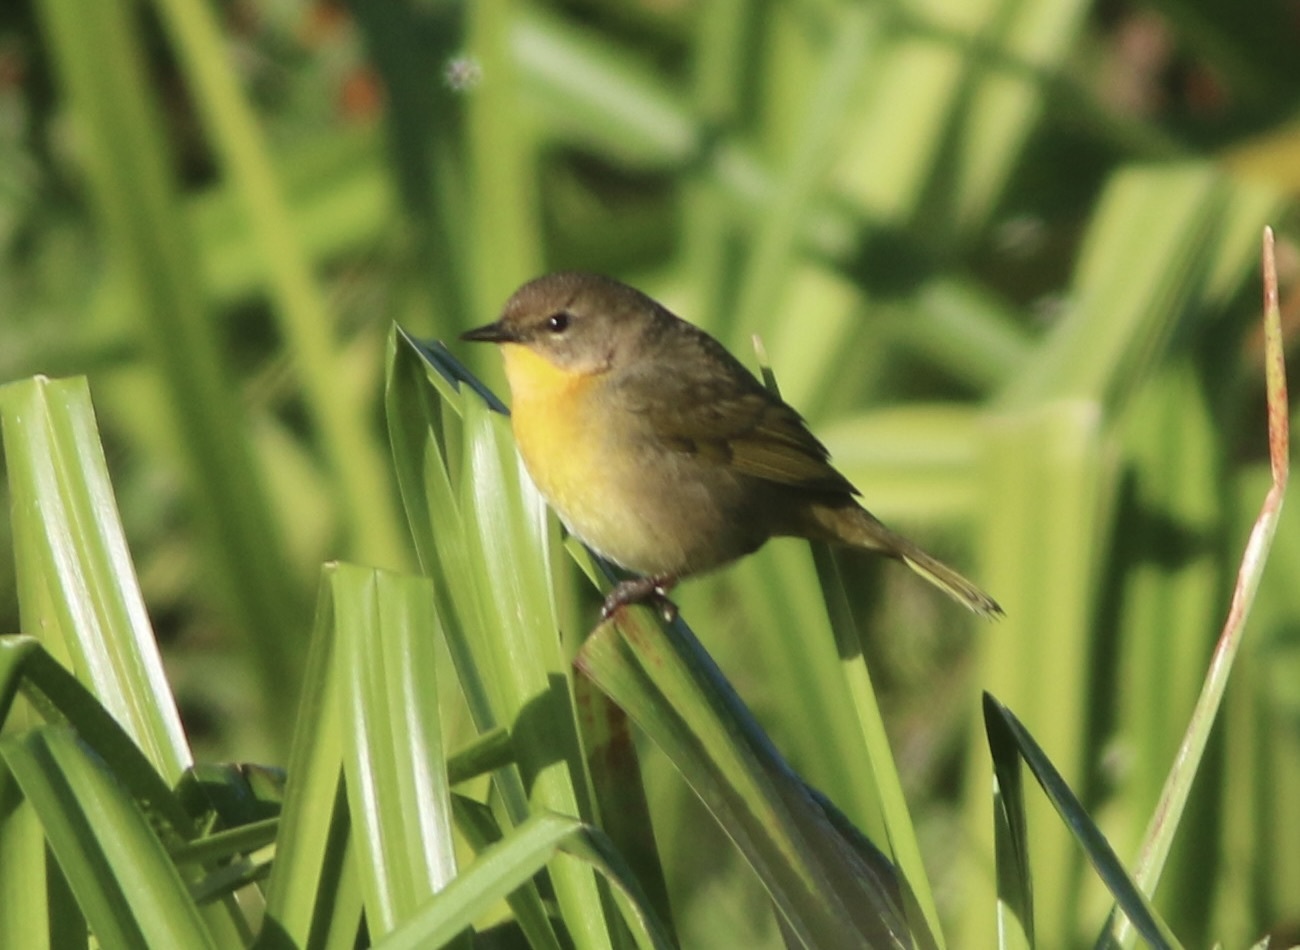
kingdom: Animalia
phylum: Chordata
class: Aves
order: Passeriformes
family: Parulidae
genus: Geothlypis
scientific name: Geothlypis trichas
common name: Common yellowthroat
